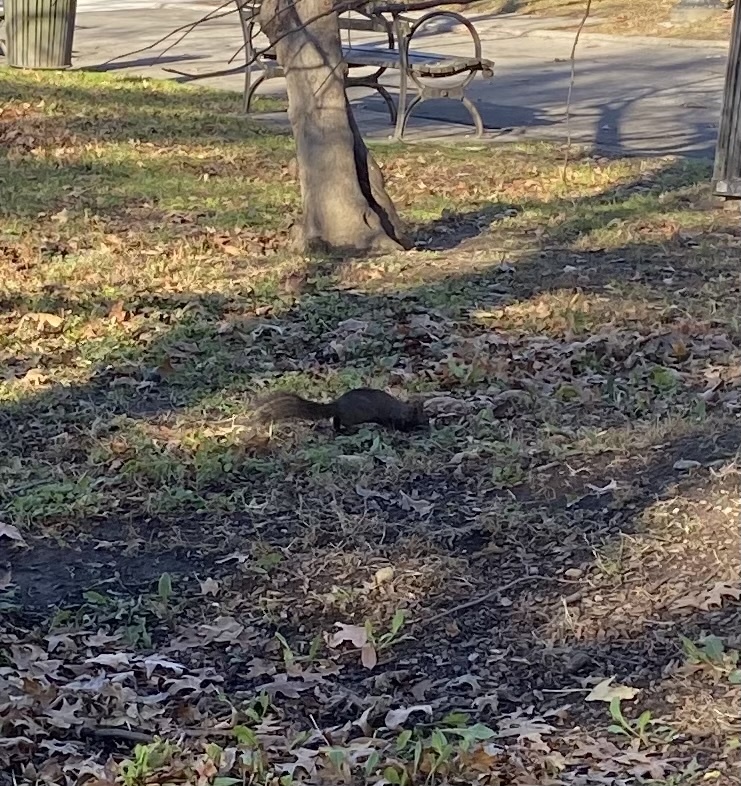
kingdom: Animalia
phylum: Chordata
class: Mammalia
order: Rodentia
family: Sciuridae
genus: Sciurus
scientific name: Sciurus carolinensis
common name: Eastern gray squirrel
